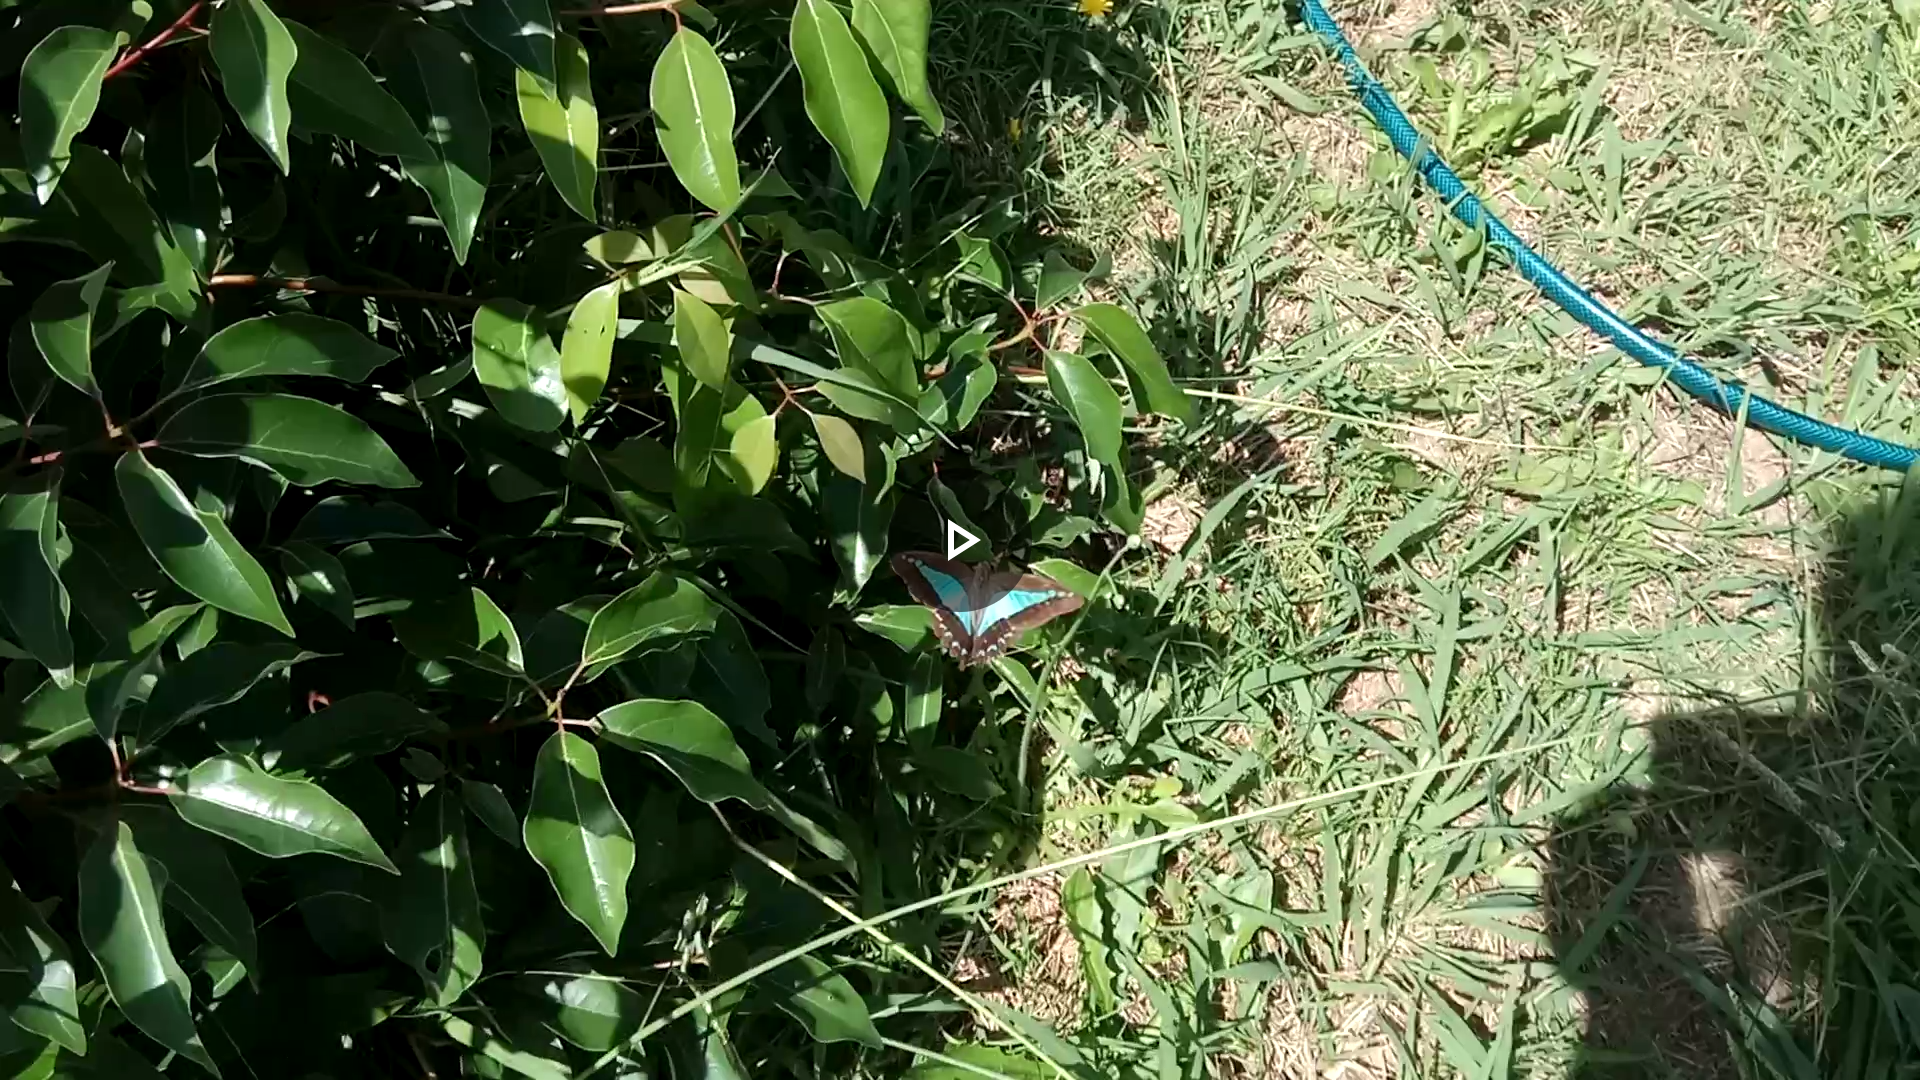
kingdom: Animalia
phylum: Arthropoda
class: Insecta
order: Lepidoptera
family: Papilionidae
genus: Graphium
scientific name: Graphium
